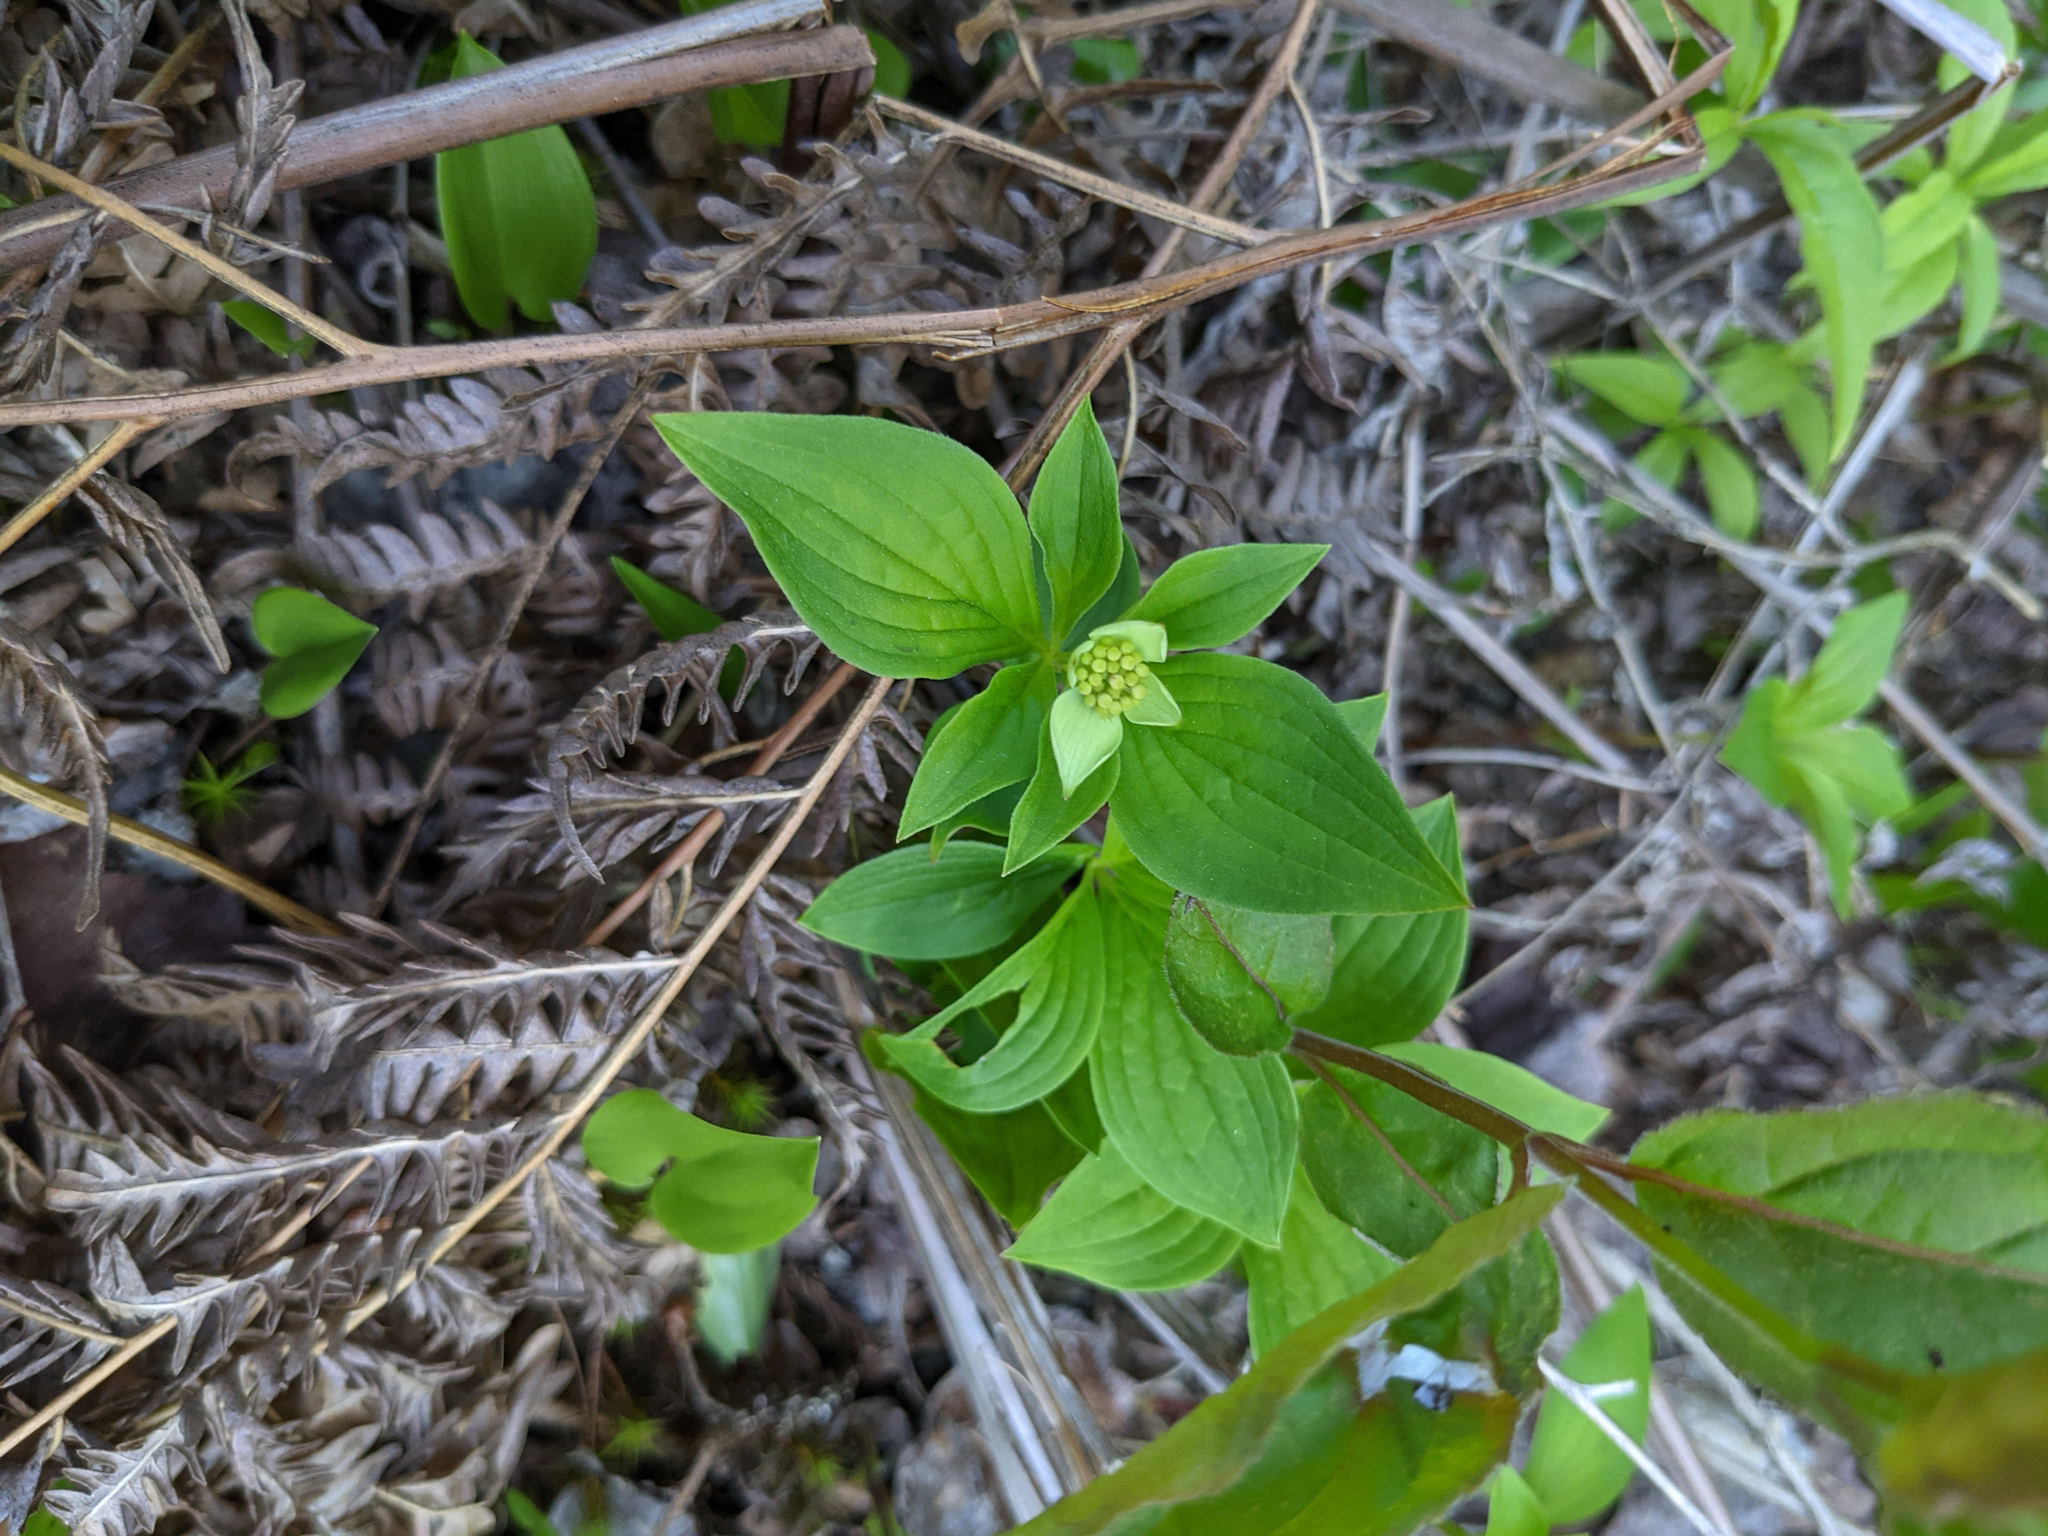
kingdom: Plantae
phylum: Tracheophyta
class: Magnoliopsida
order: Cornales
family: Cornaceae
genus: Cornus
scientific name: Cornus canadensis
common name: Creeping dogwood
